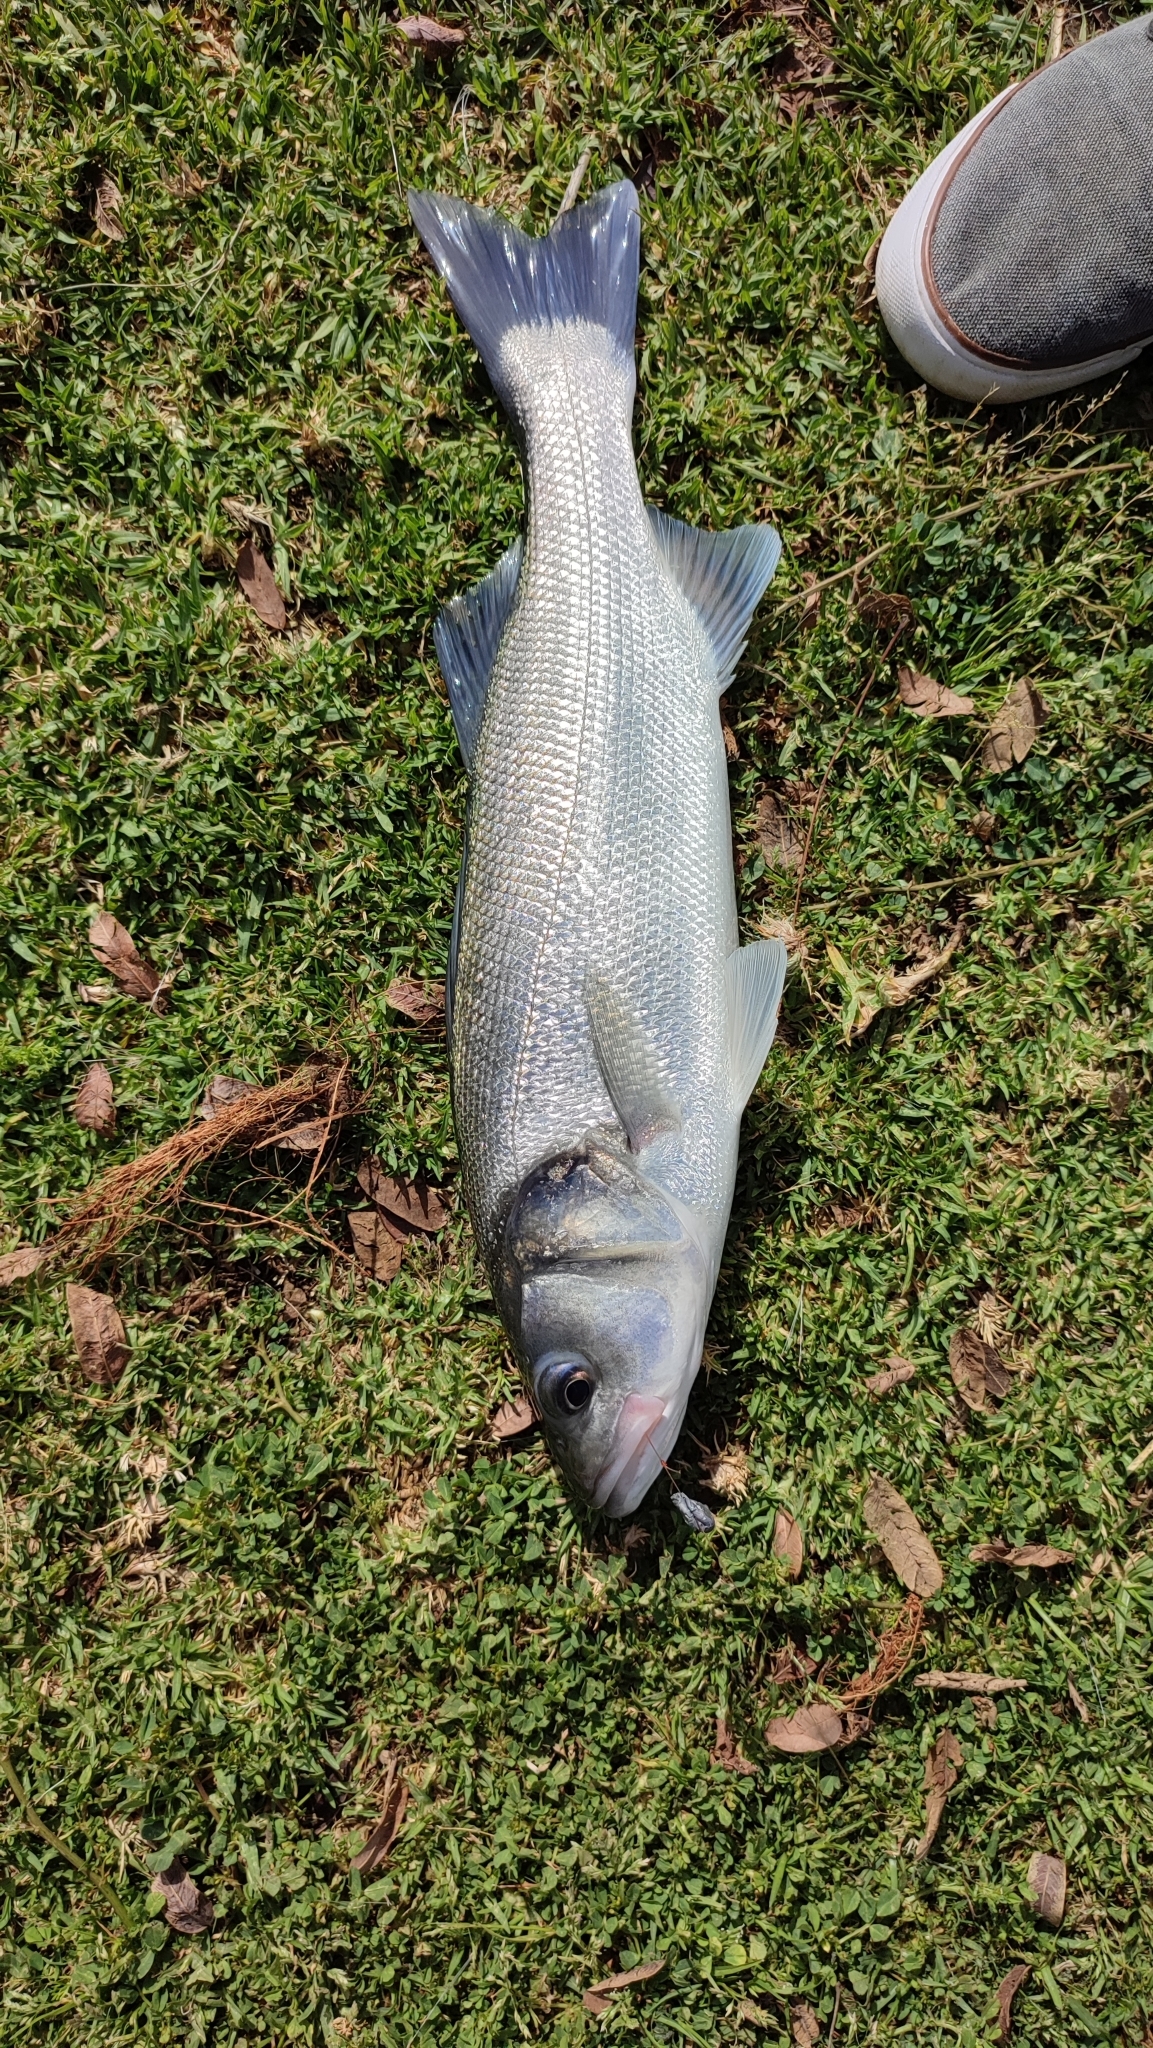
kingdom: Animalia
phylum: Chordata
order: Perciformes
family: Moronidae
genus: Dicentrarchus
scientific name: Dicentrarchus labrax
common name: European seabass
